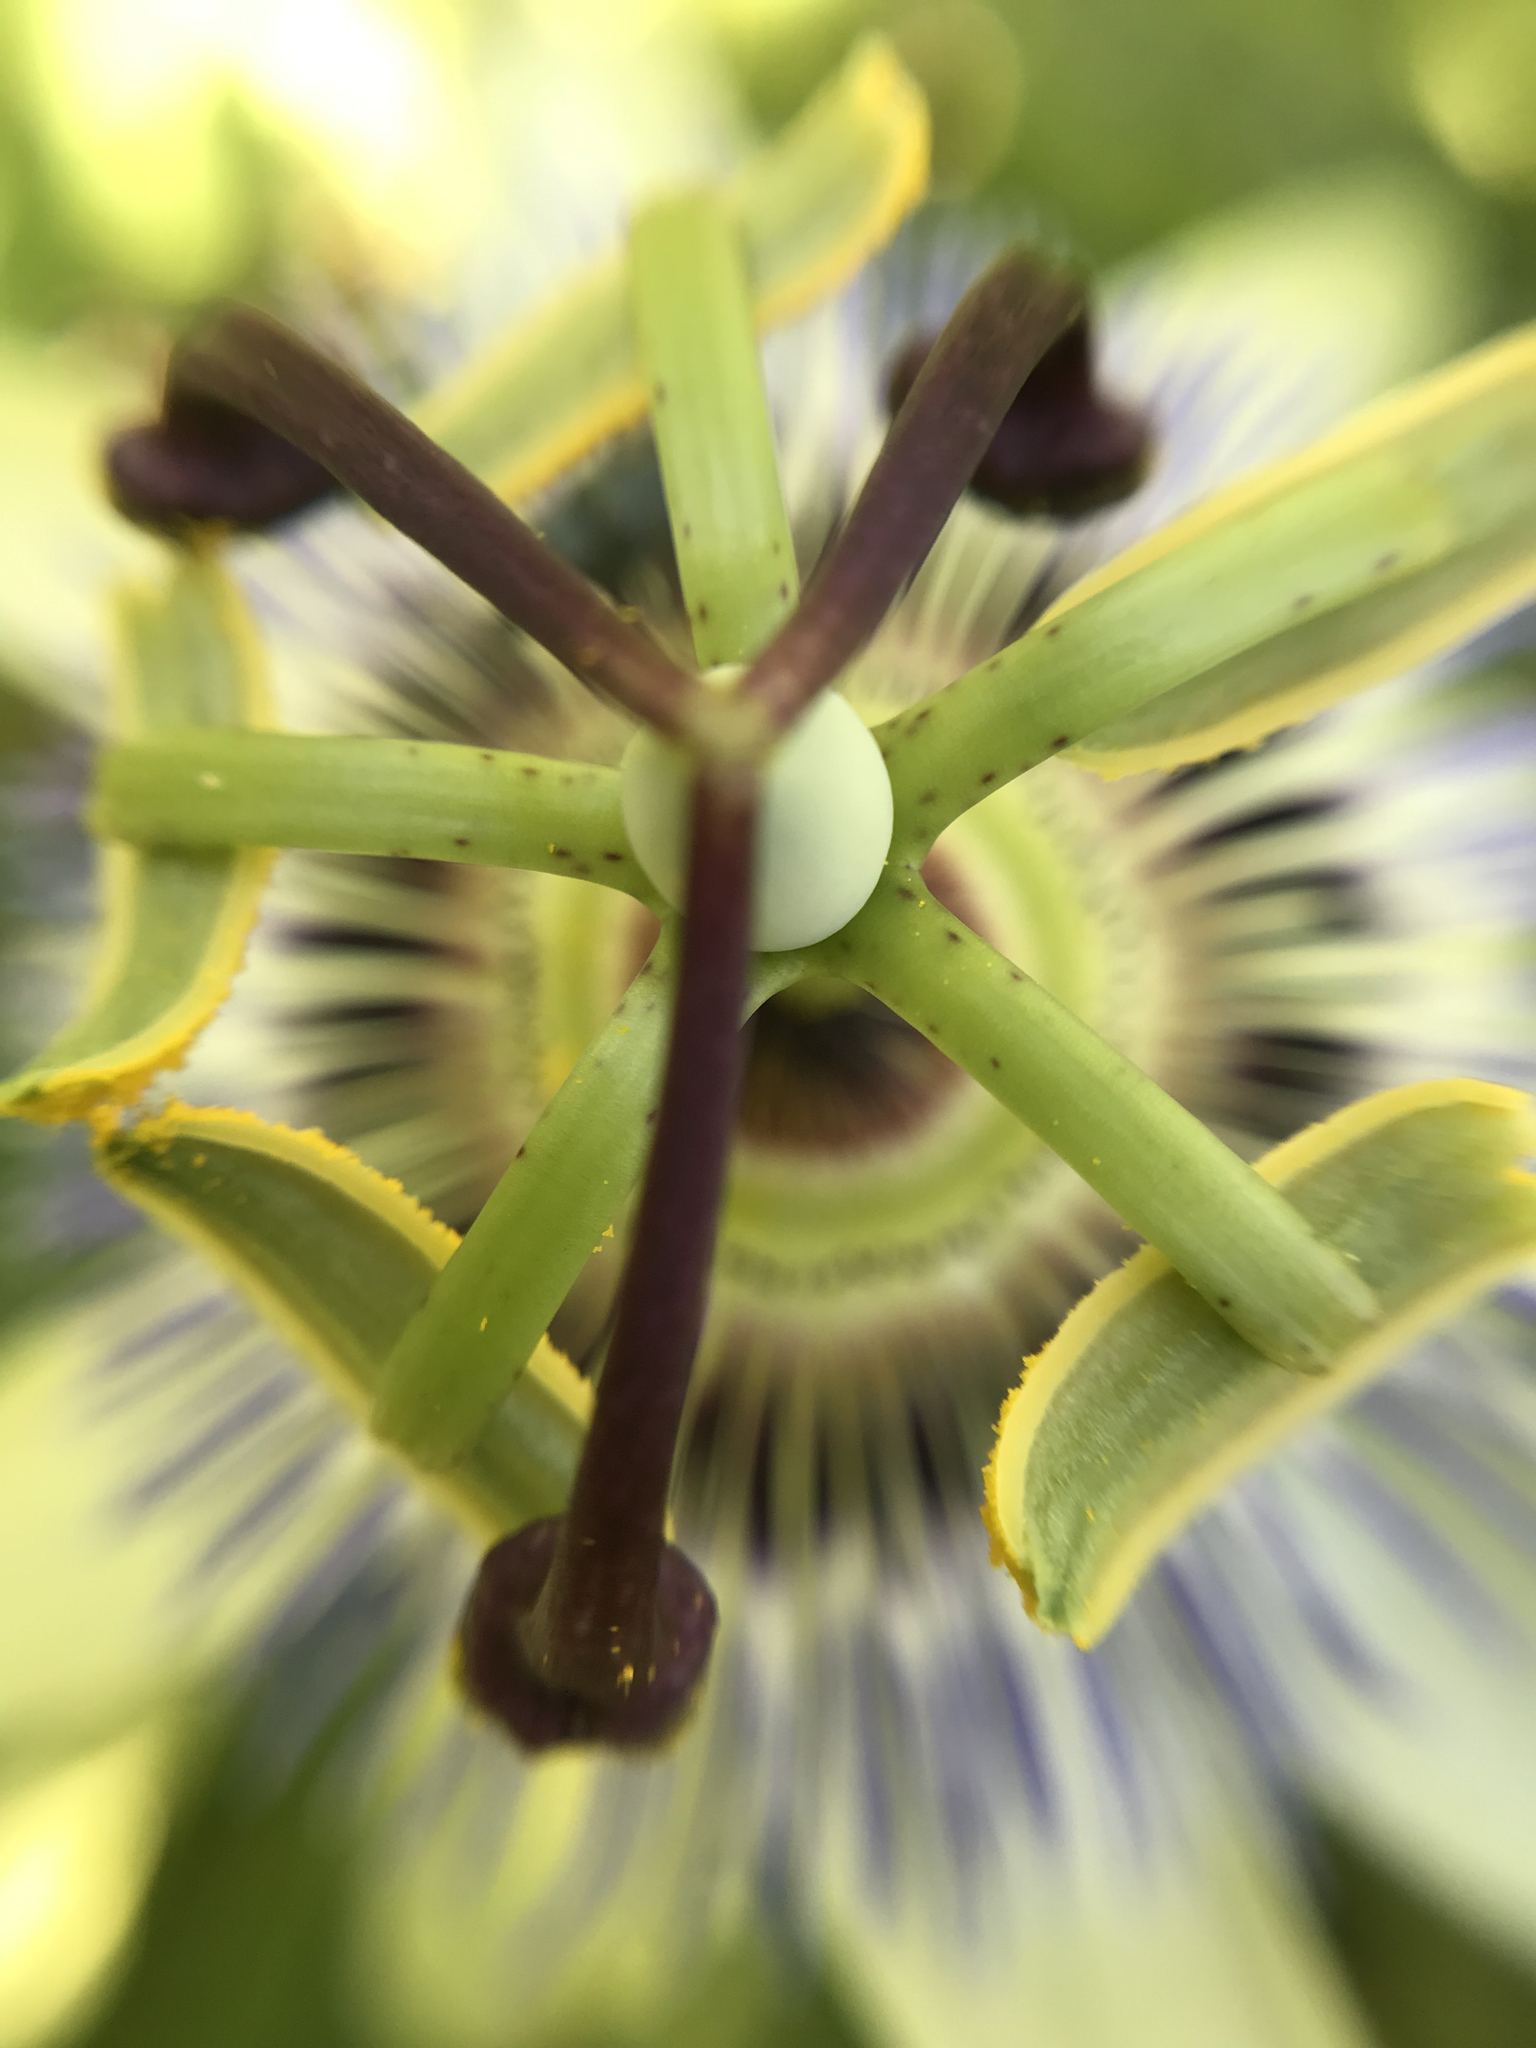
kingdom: Plantae
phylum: Tracheophyta
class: Magnoliopsida
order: Malpighiales
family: Passifloraceae
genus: Passiflora
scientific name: Passiflora caerulea
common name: Blue passionflower
